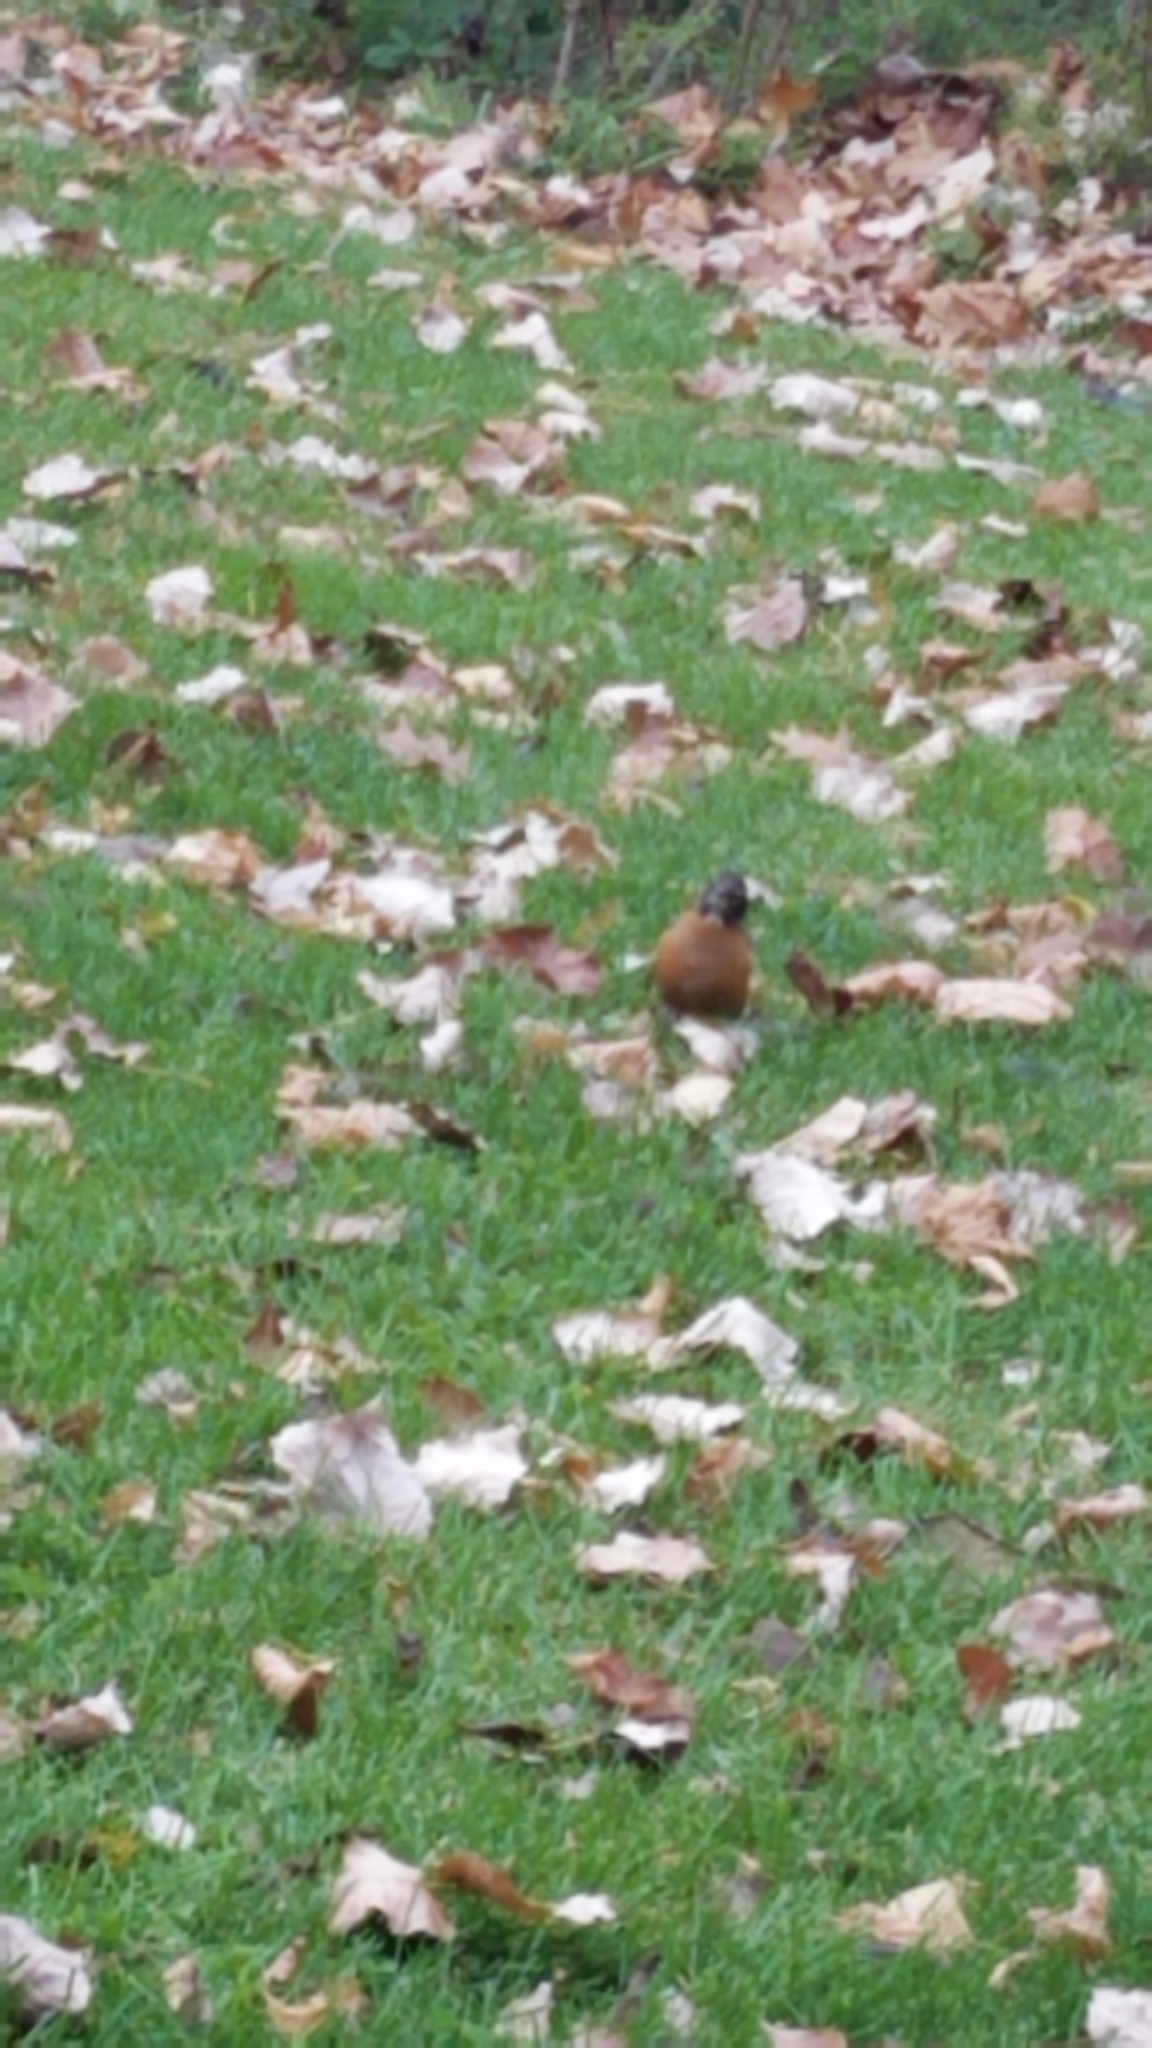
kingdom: Animalia
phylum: Chordata
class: Aves
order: Passeriformes
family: Turdidae
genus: Turdus
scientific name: Turdus migratorius
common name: American robin
